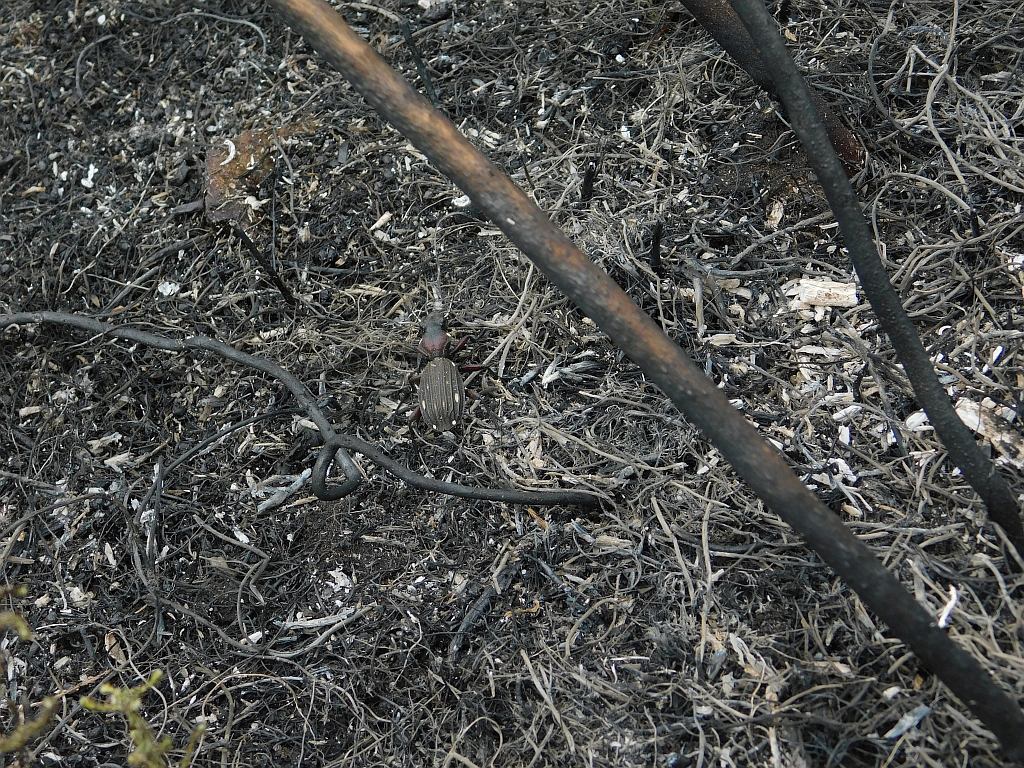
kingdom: Animalia
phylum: Arthropoda
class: Insecta
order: Coleoptera
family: Carabidae
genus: Anthia
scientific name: Anthia decemguttata
